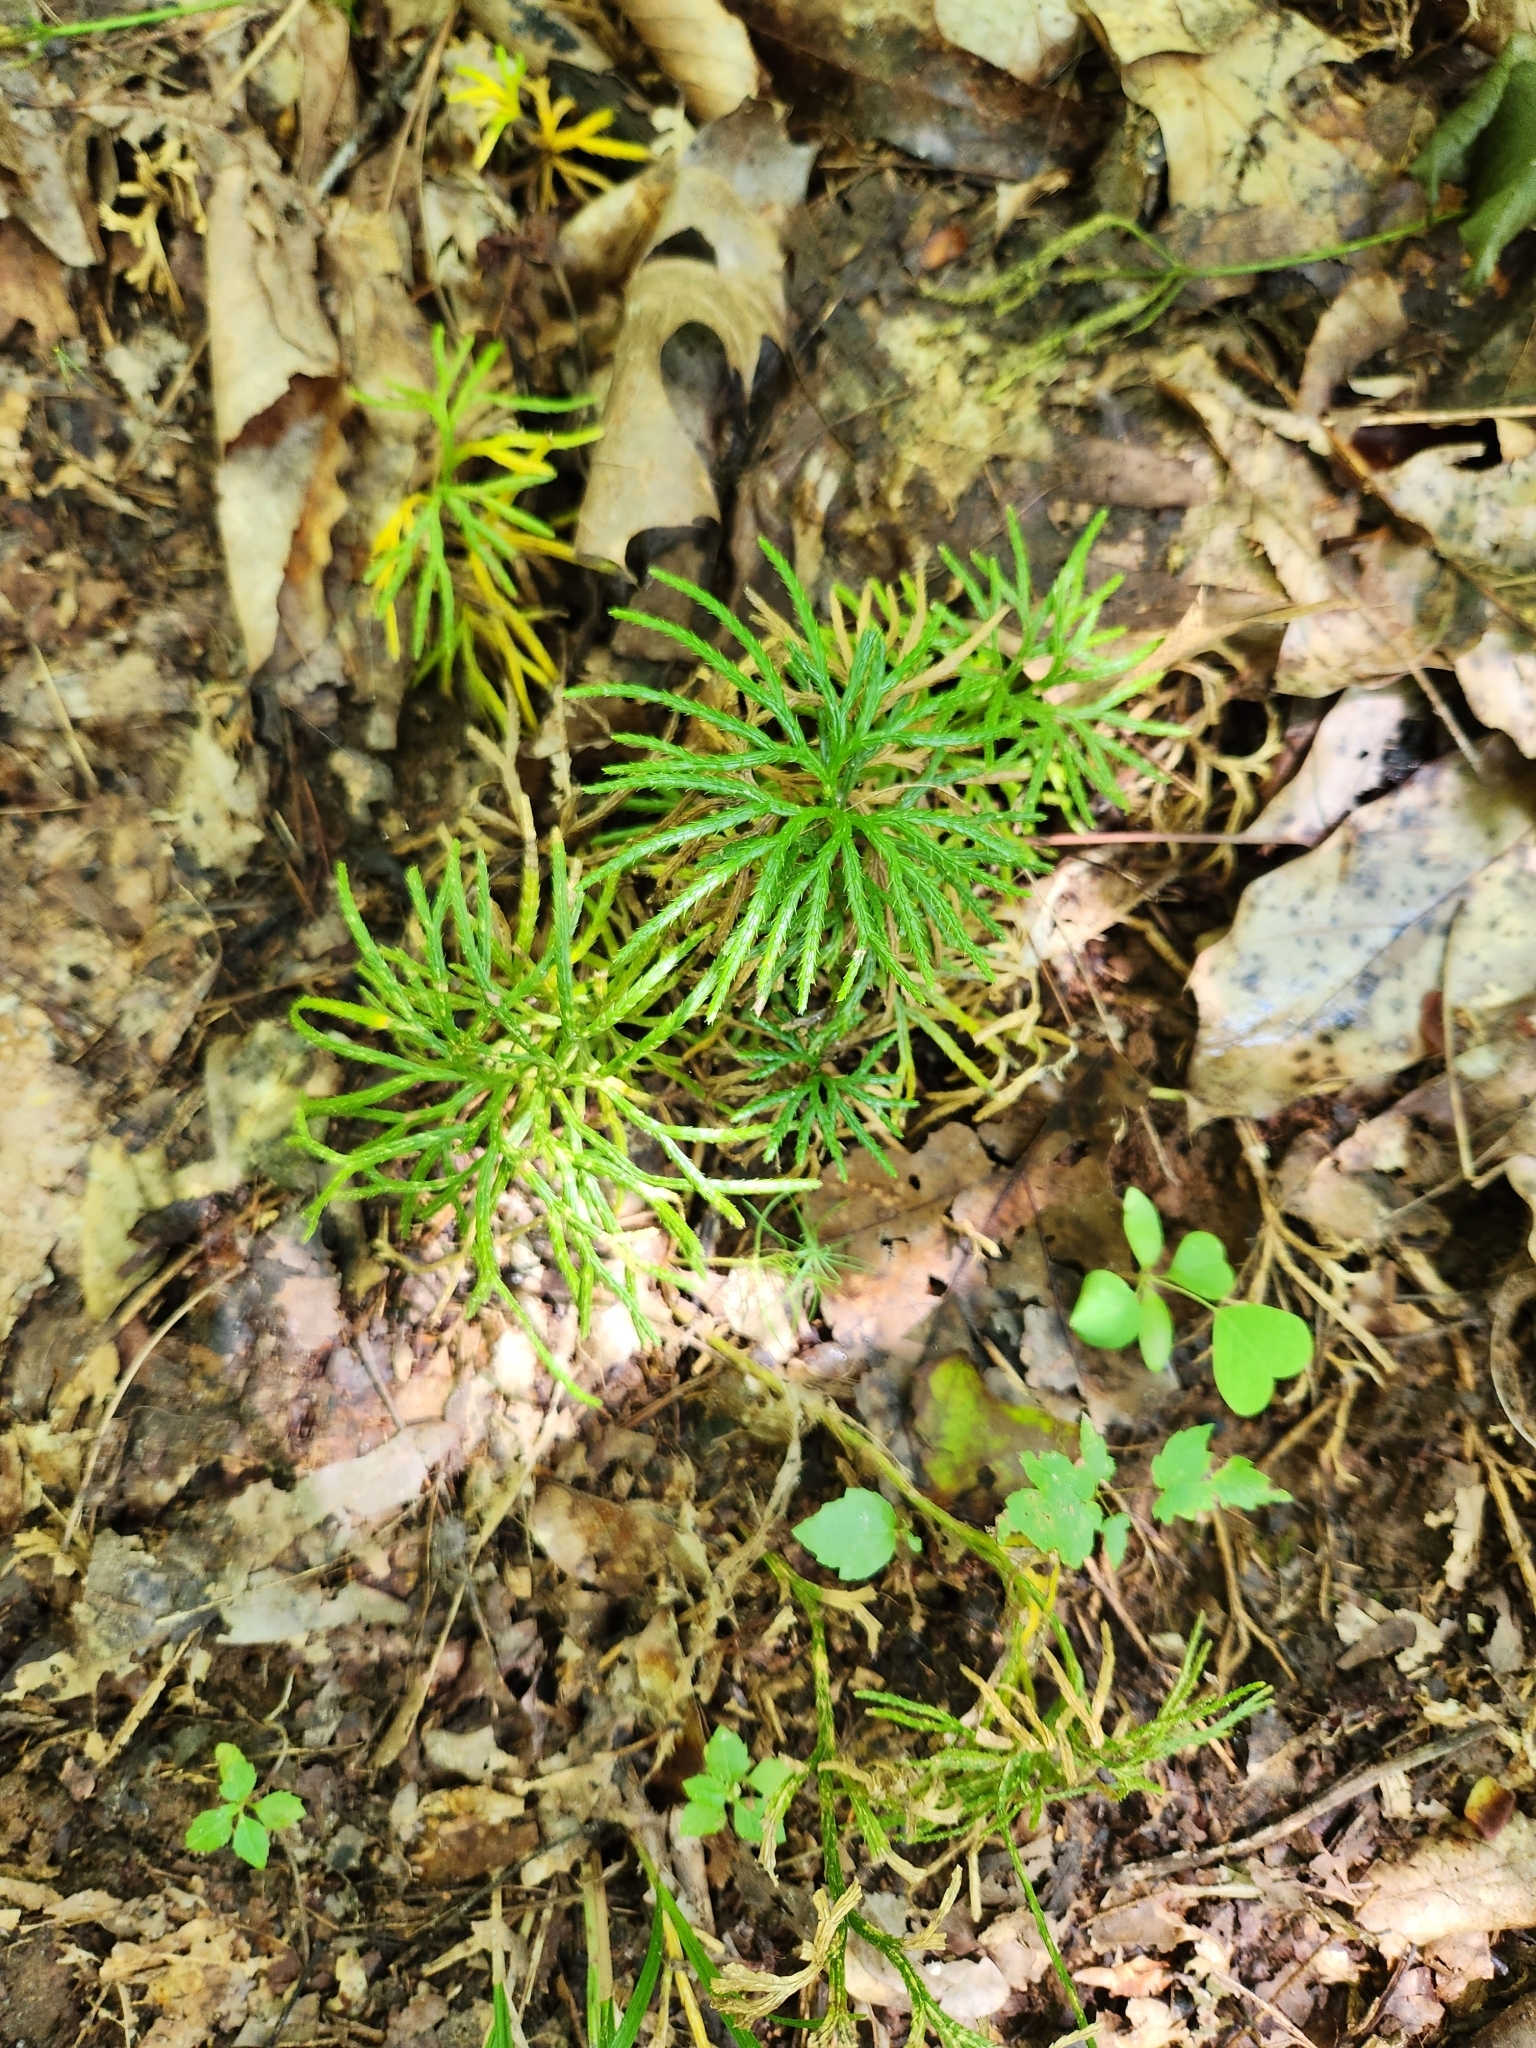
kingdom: Plantae
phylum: Tracheophyta
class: Lycopodiopsida
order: Lycopodiales
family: Lycopodiaceae
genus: Diphasiastrum
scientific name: Diphasiastrum digitatum
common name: Southern running-pine
